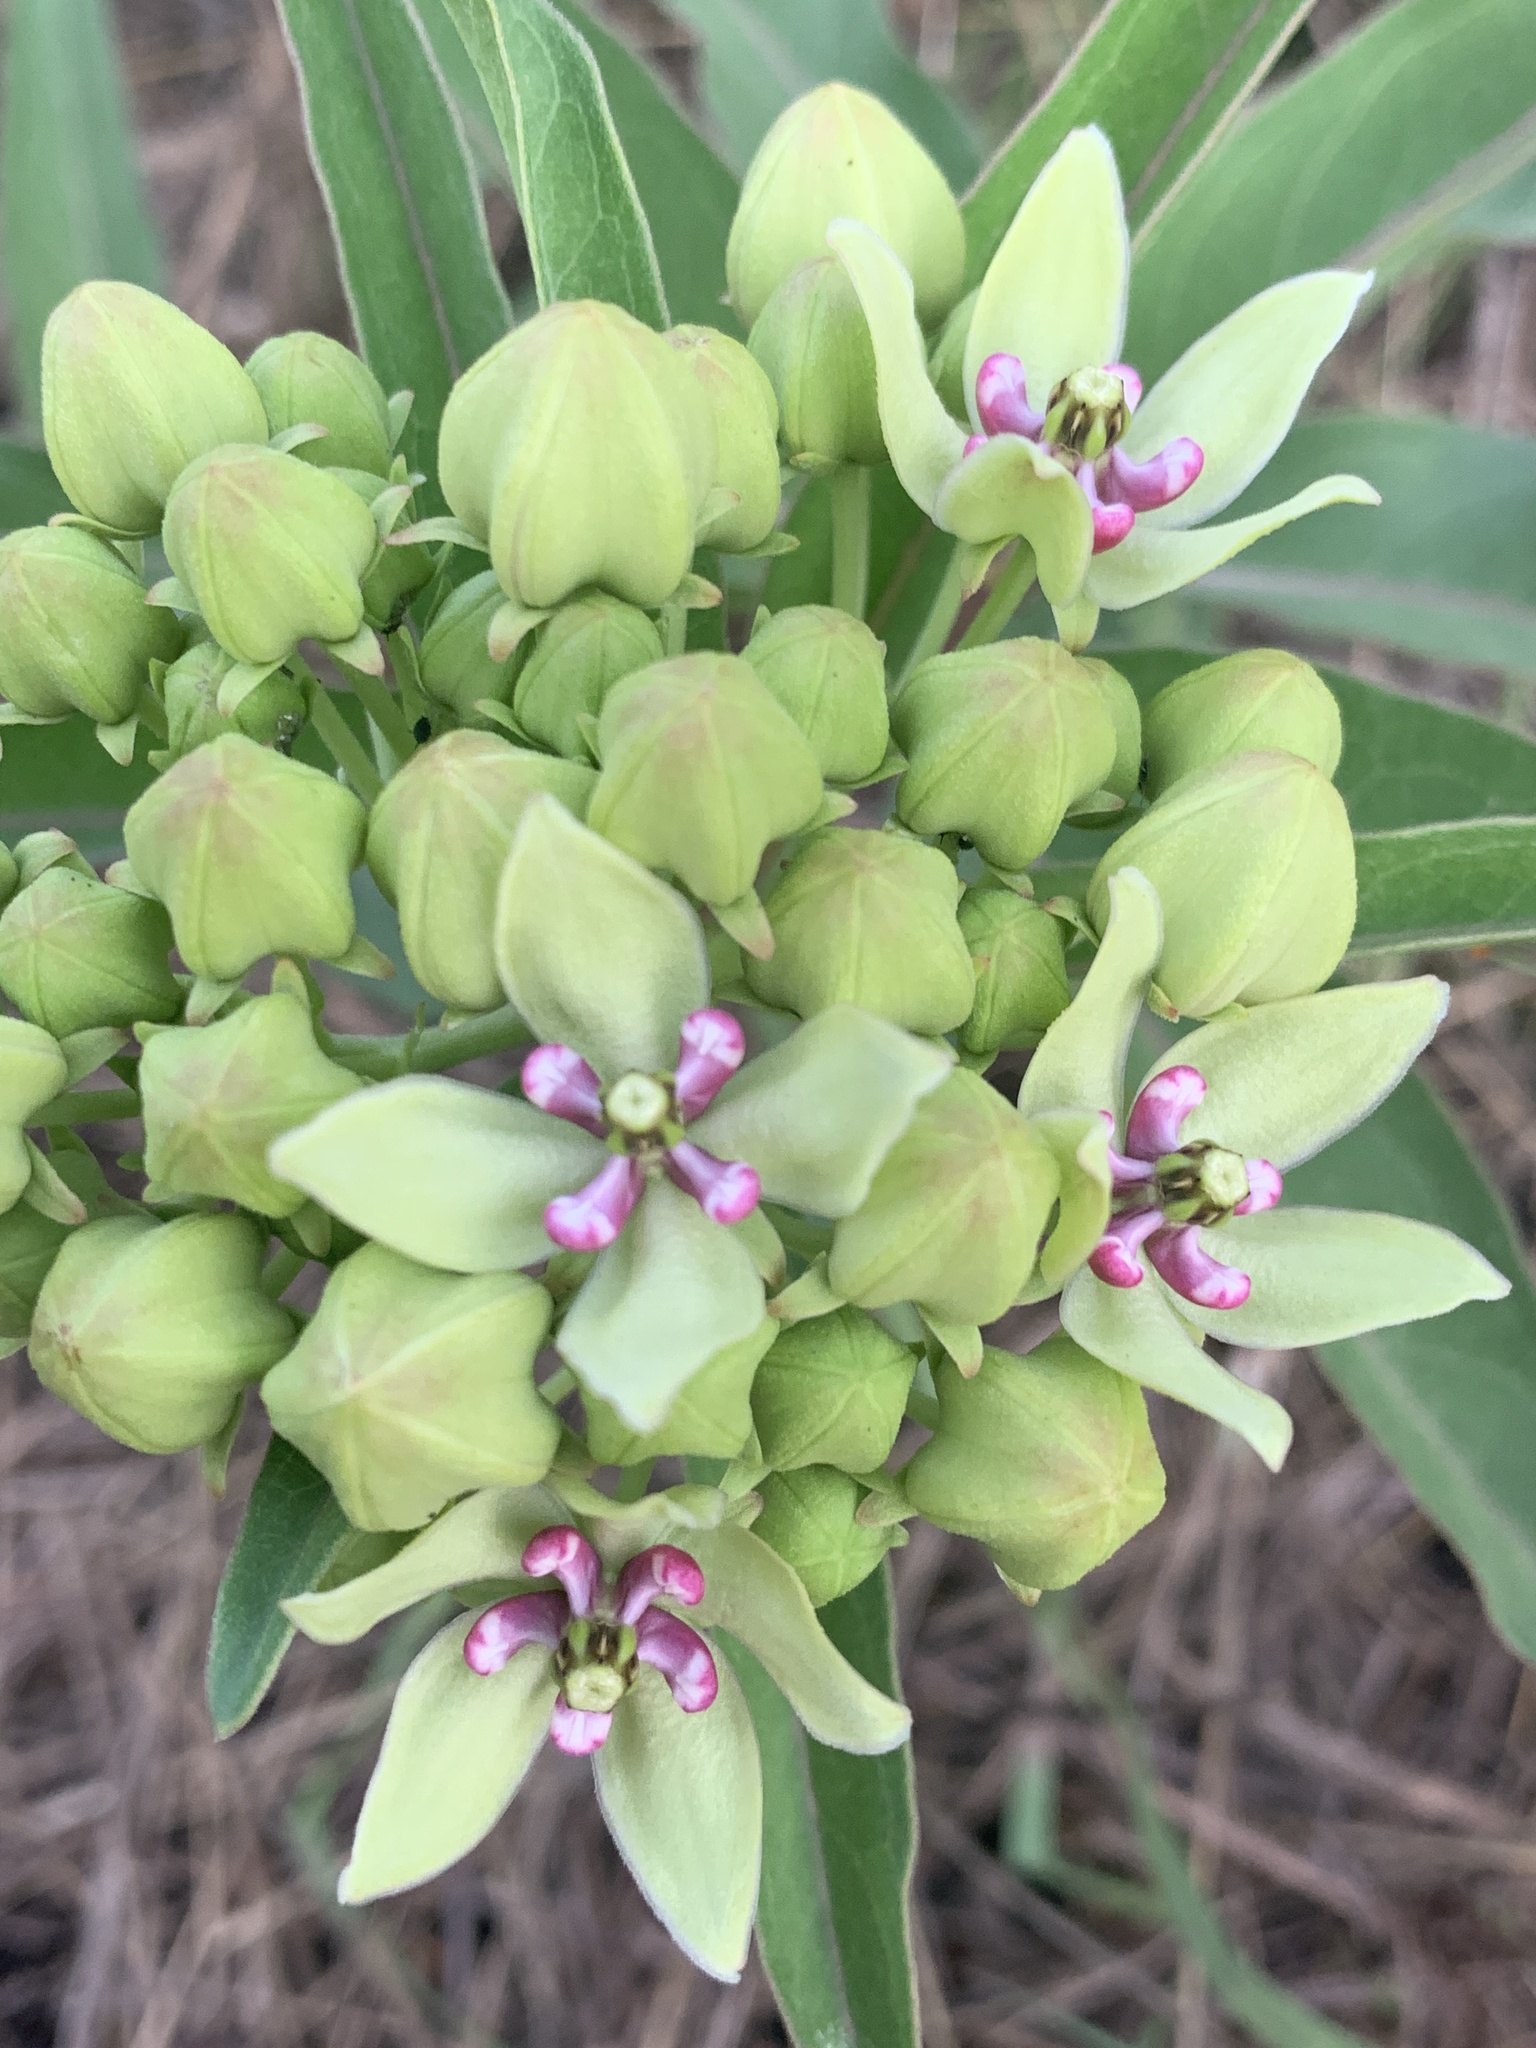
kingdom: Plantae
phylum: Tracheophyta
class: Magnoliopsida
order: Gentianales
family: Apocynaceae
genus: Asclepias
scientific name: Asclepias viridis
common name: Antelope-horns
